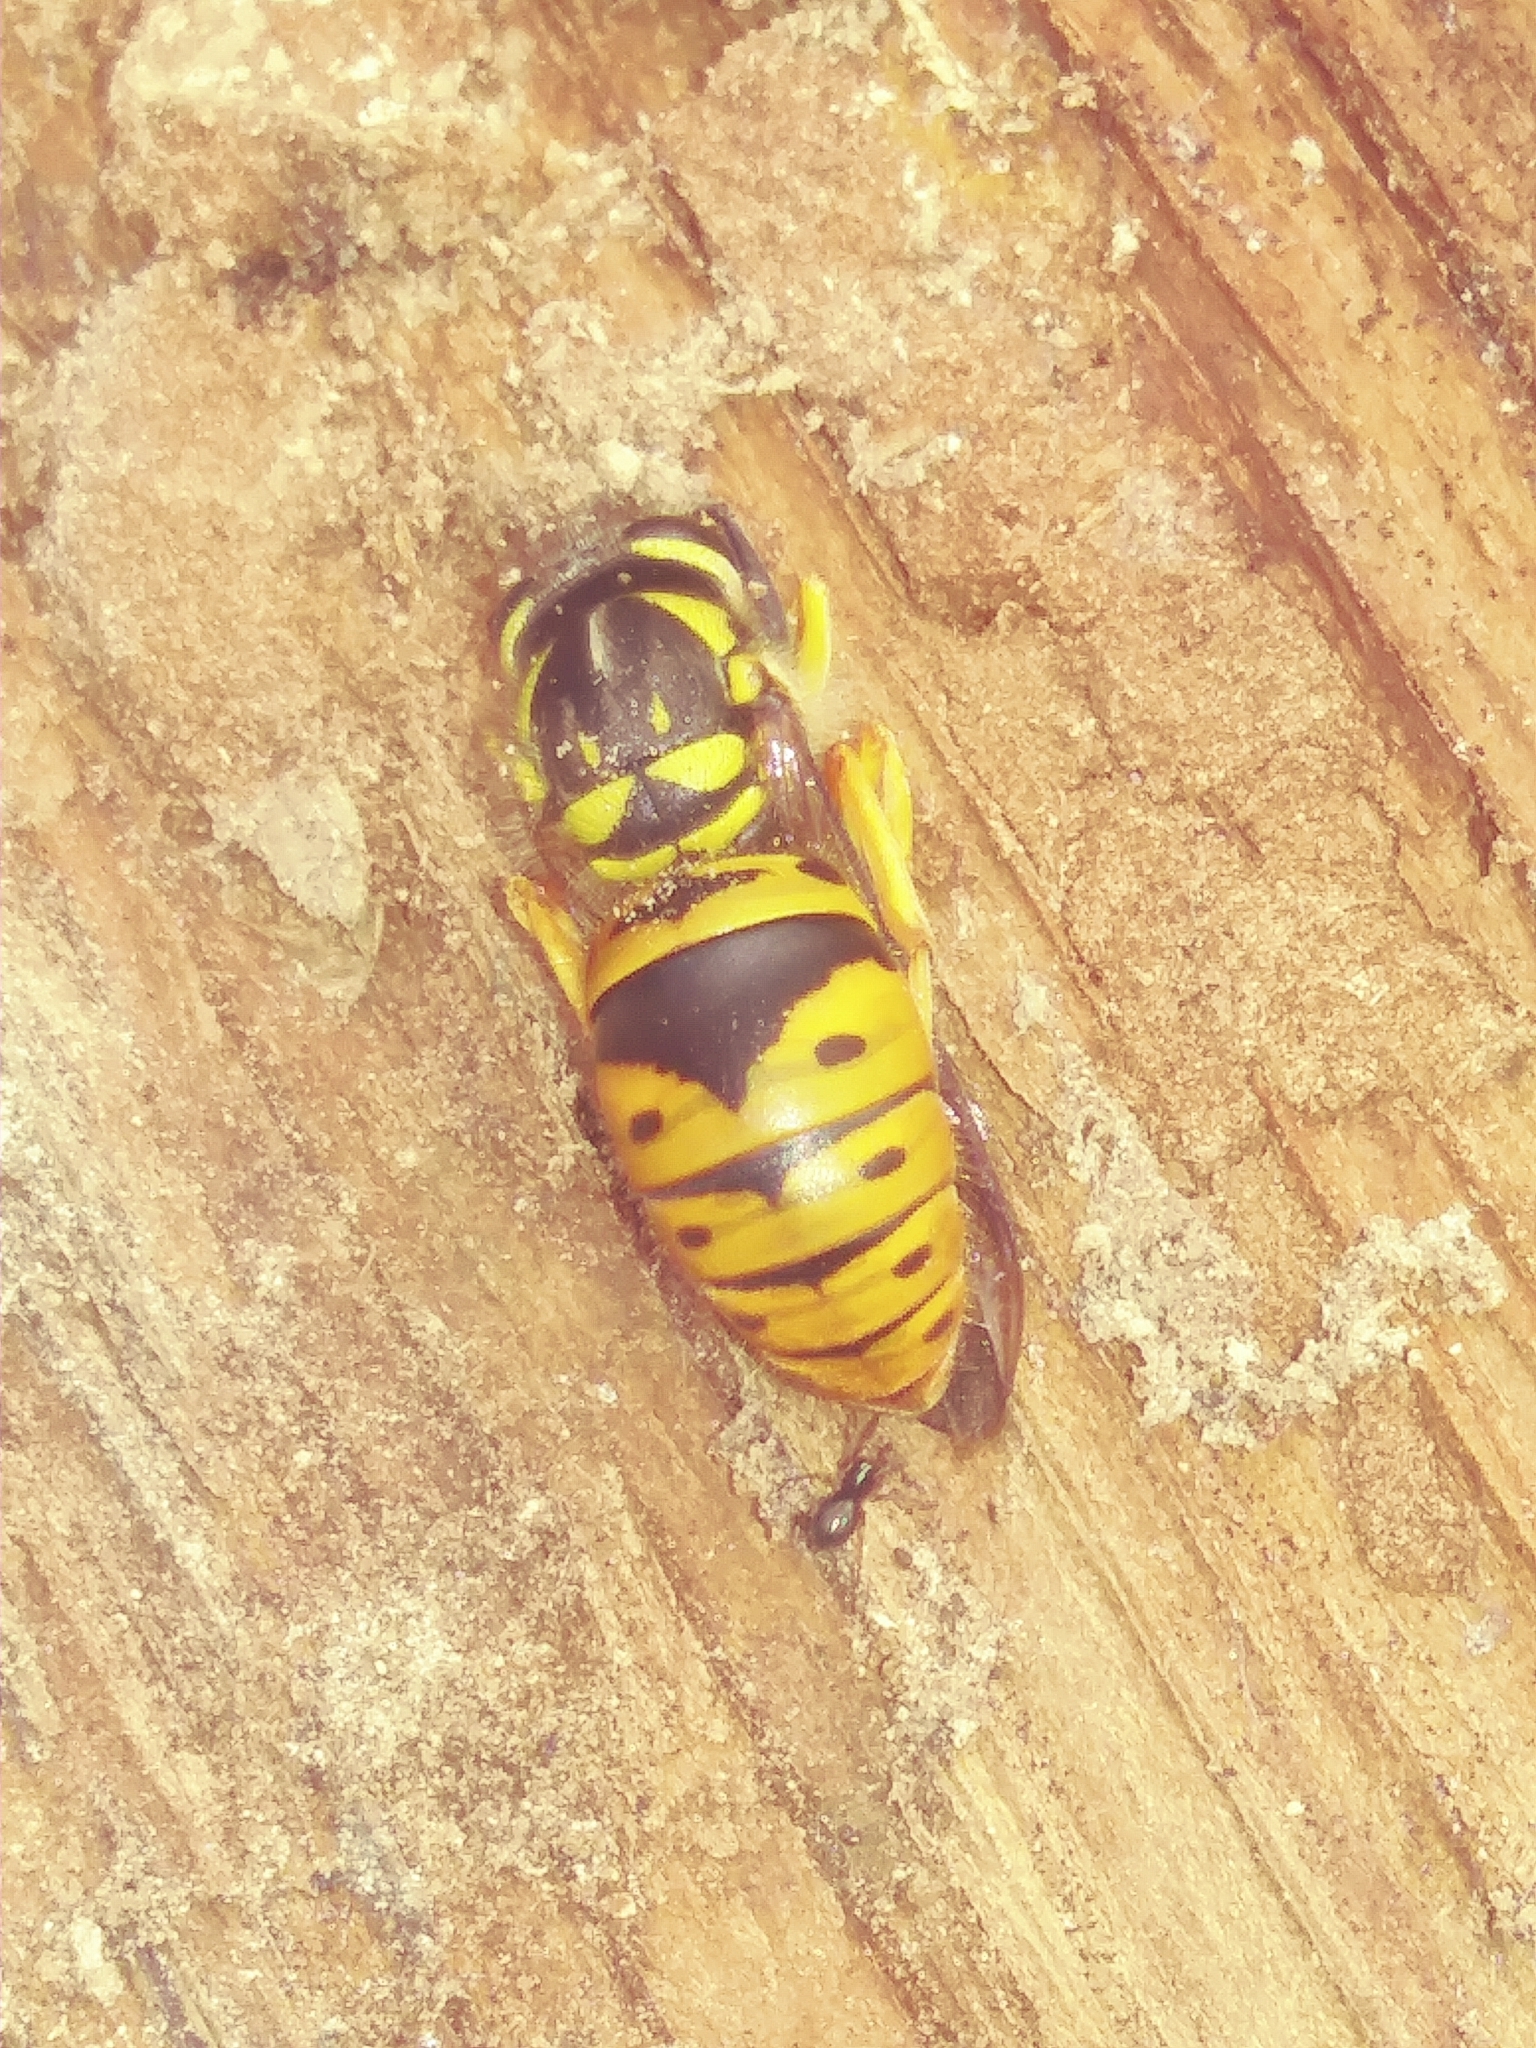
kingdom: Animalia
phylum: Arthropoda
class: Insecta
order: Hymenoptera
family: Vespidae
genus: Vespula
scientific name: Vespula maculifrons
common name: Eastern yellowjacket
